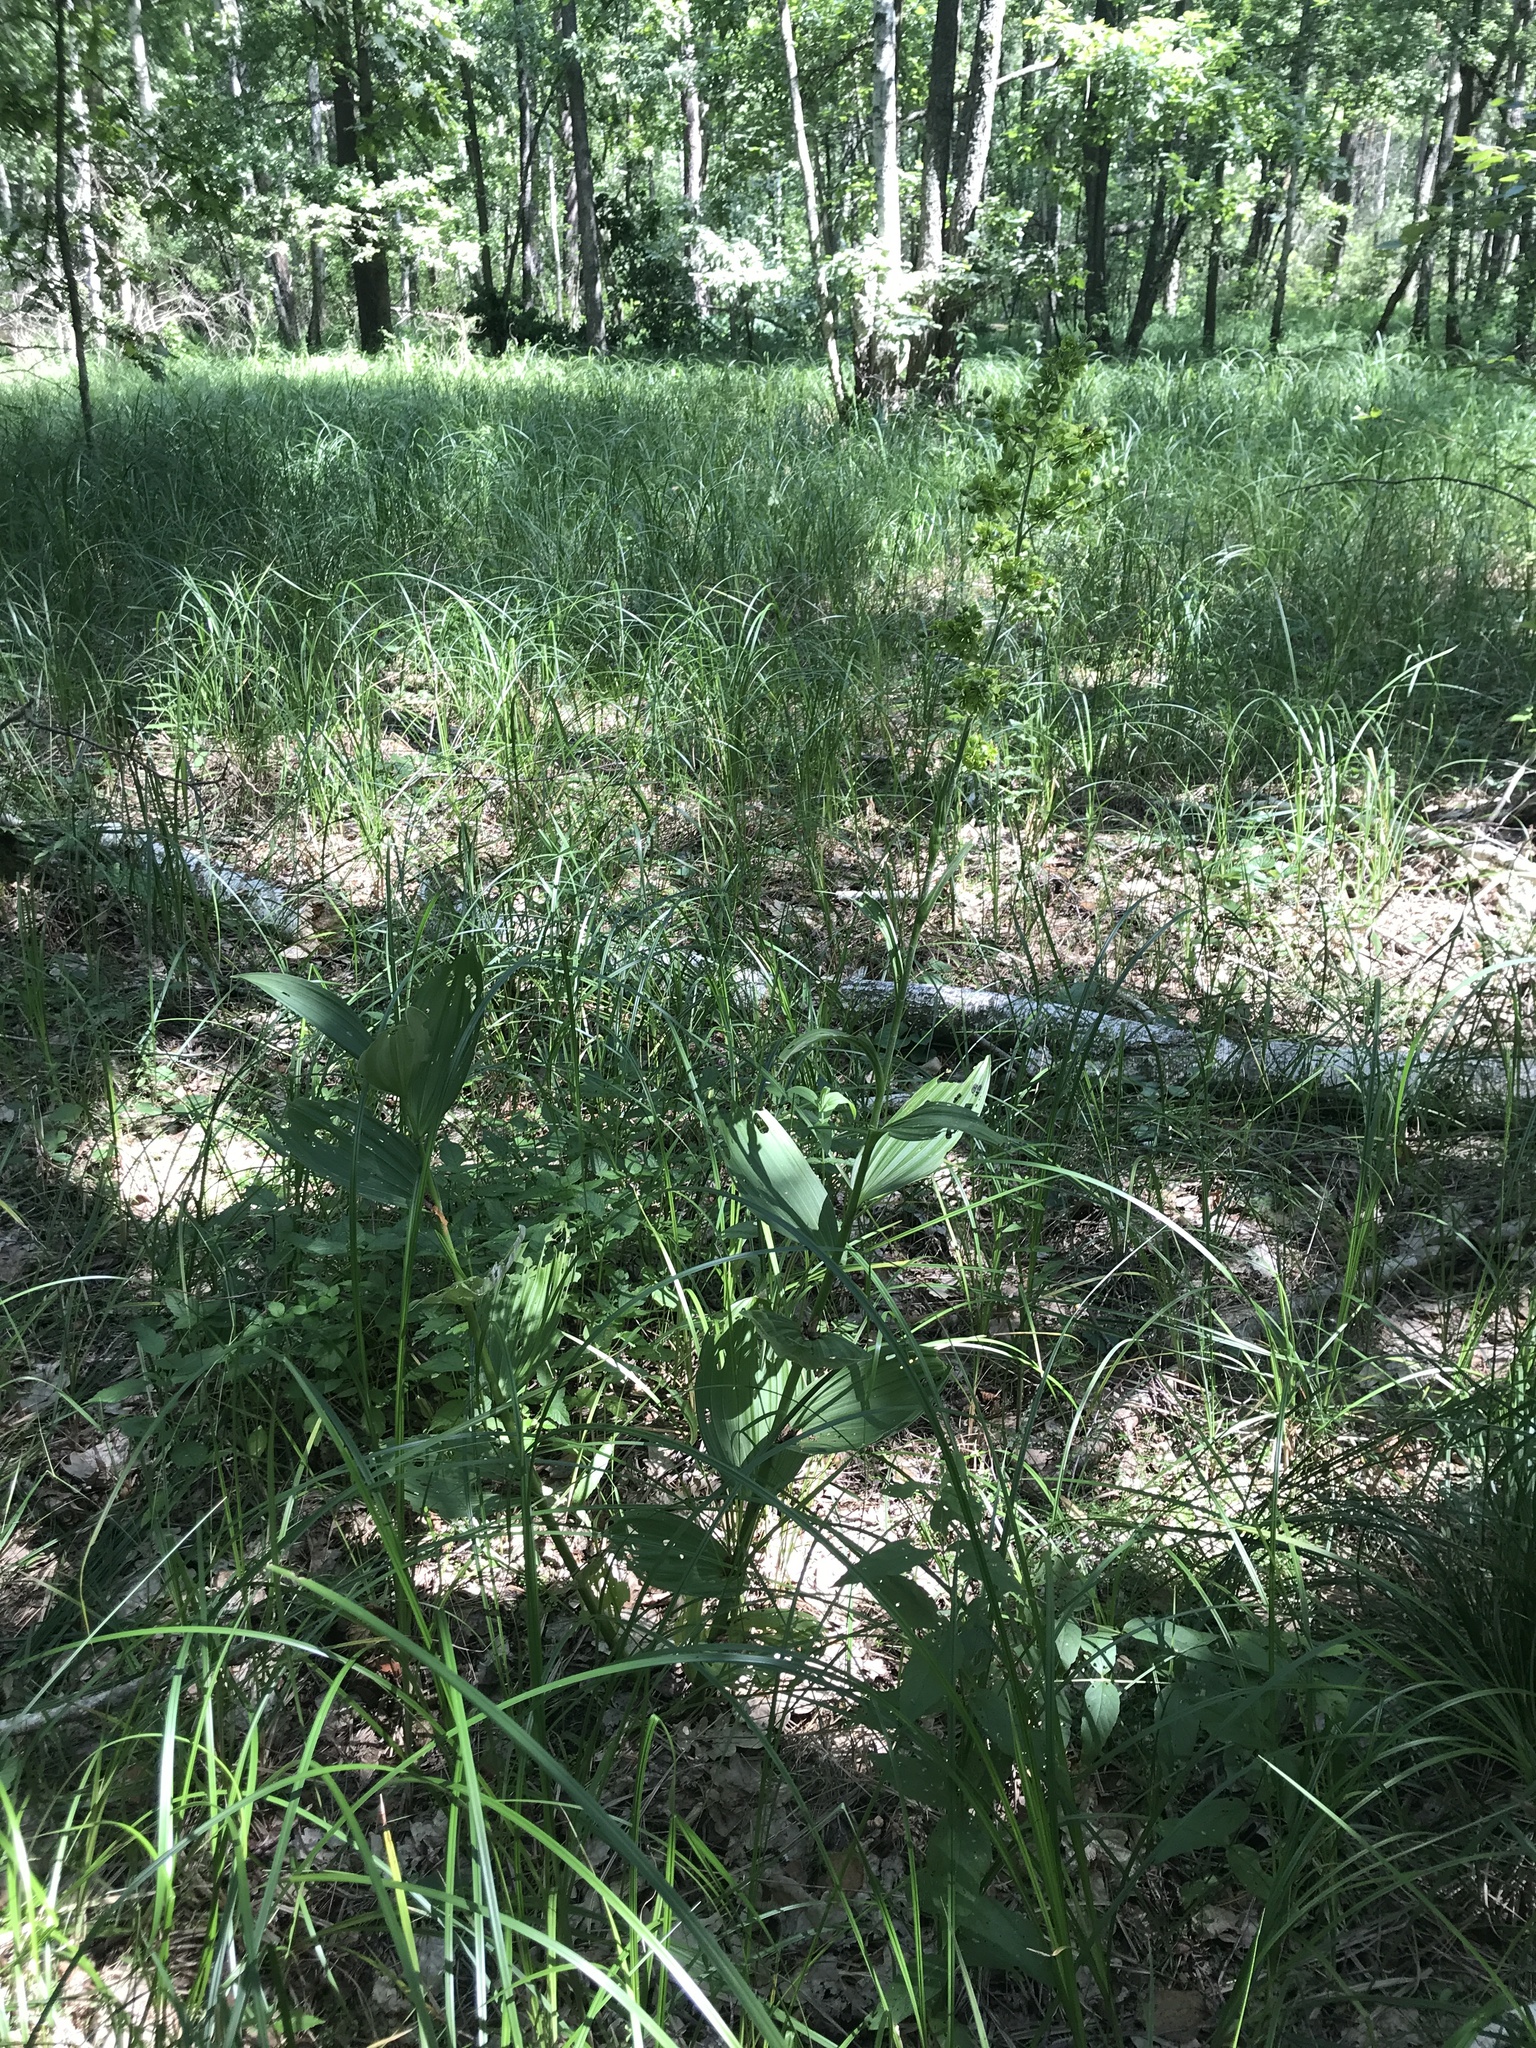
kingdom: Plantae
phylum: Tracheophyta
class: Liliopsida
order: Liliales
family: Melanthiaceae
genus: Veratrum
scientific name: Veratrum lobelianum
